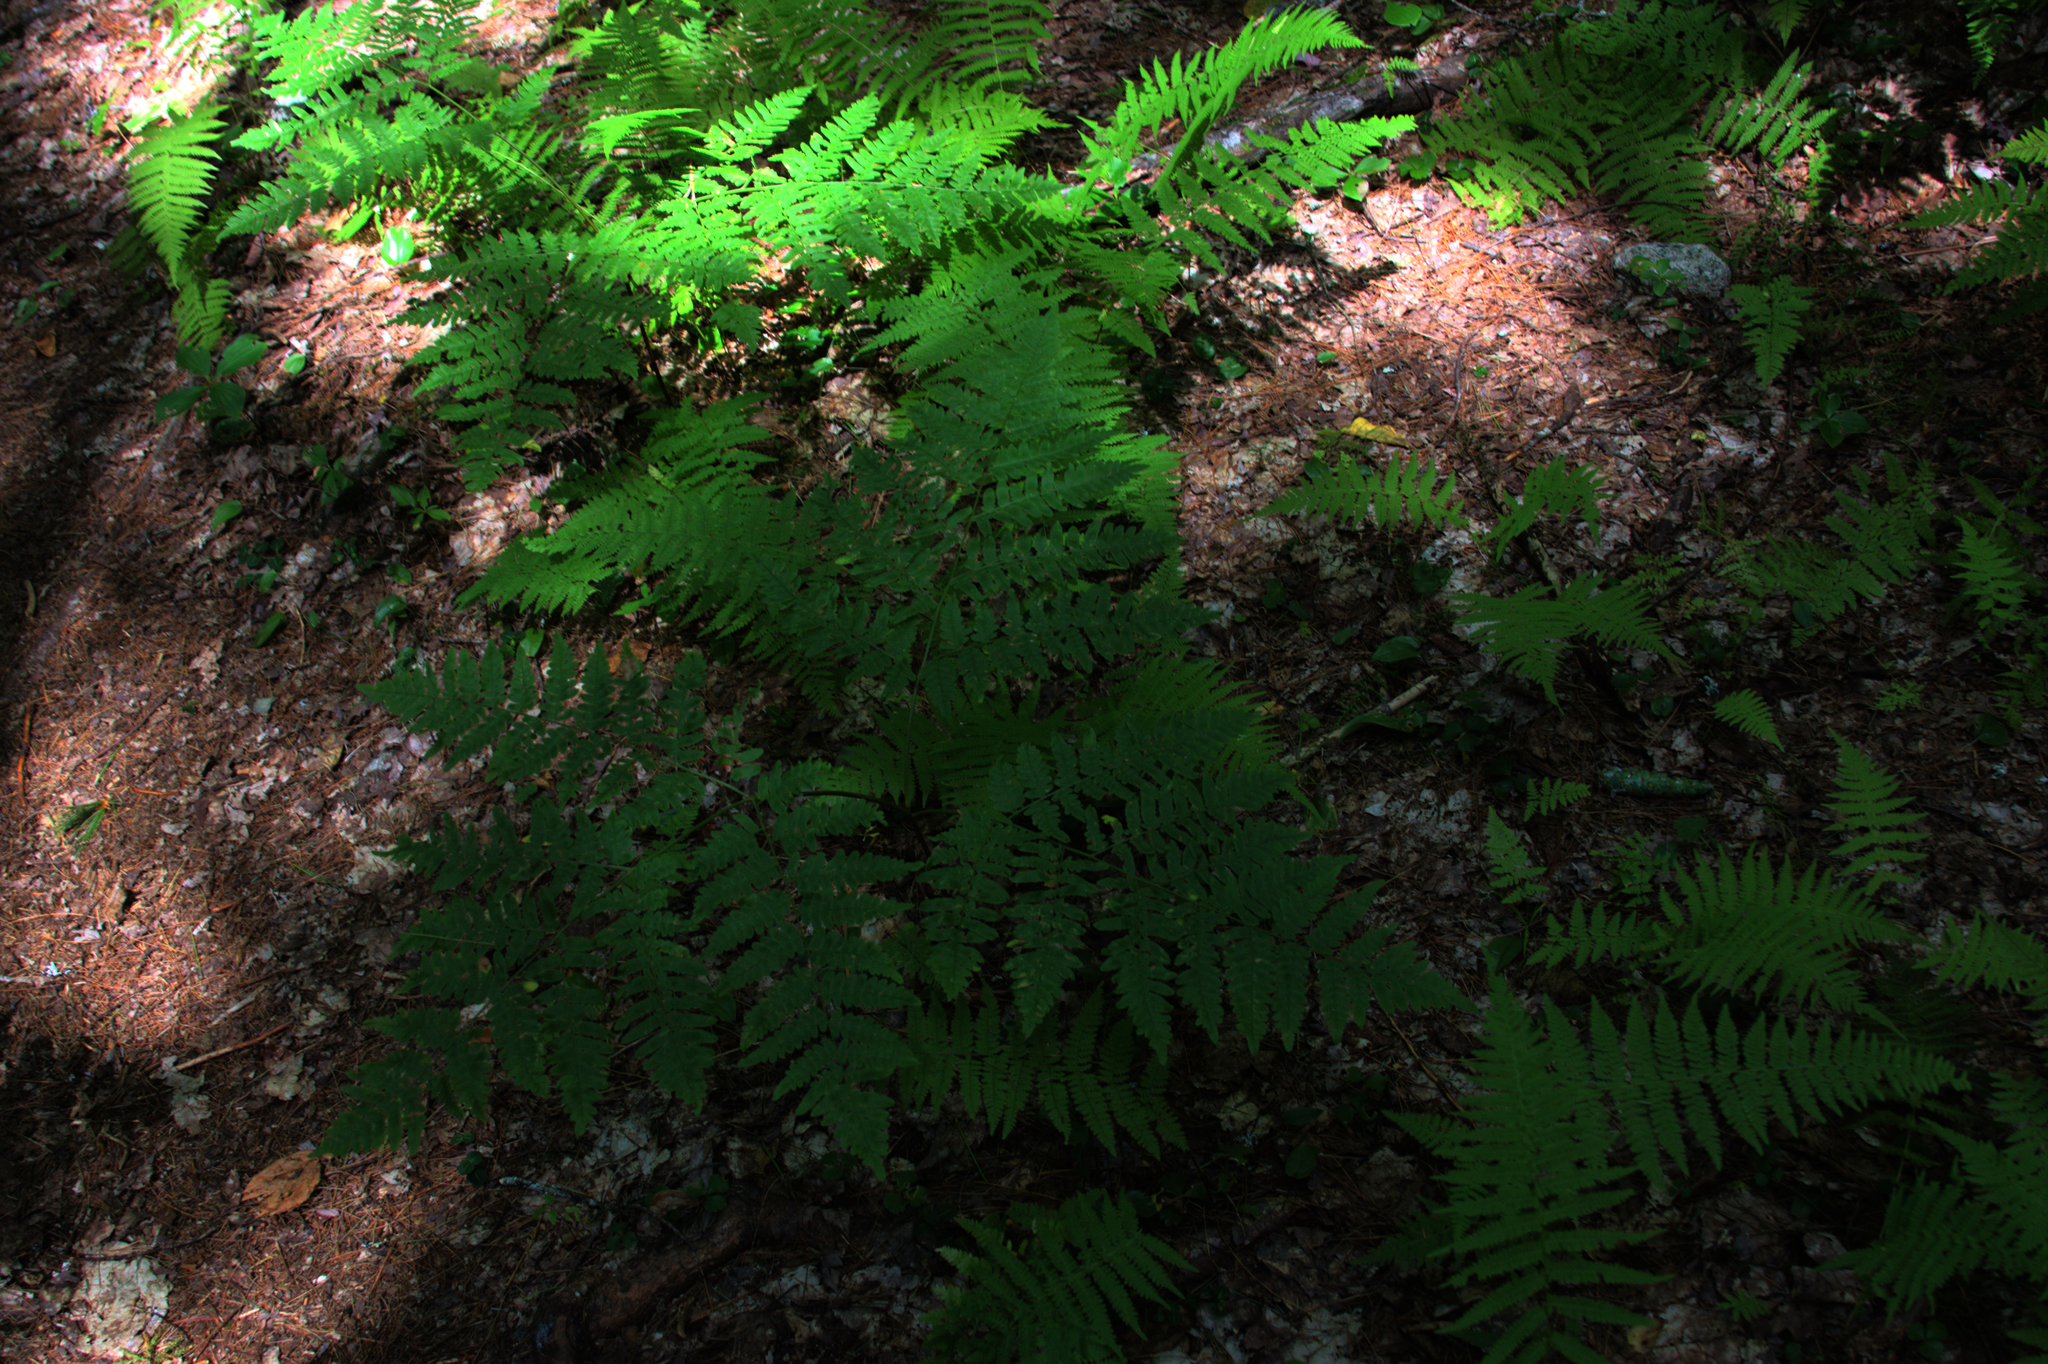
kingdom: Plantae
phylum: Tracheophyta
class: Polypodiopsida
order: Polypodiales
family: Dennstaedtiaceae
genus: Pteridium
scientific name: Pteridium aquilinum
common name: Bracken
